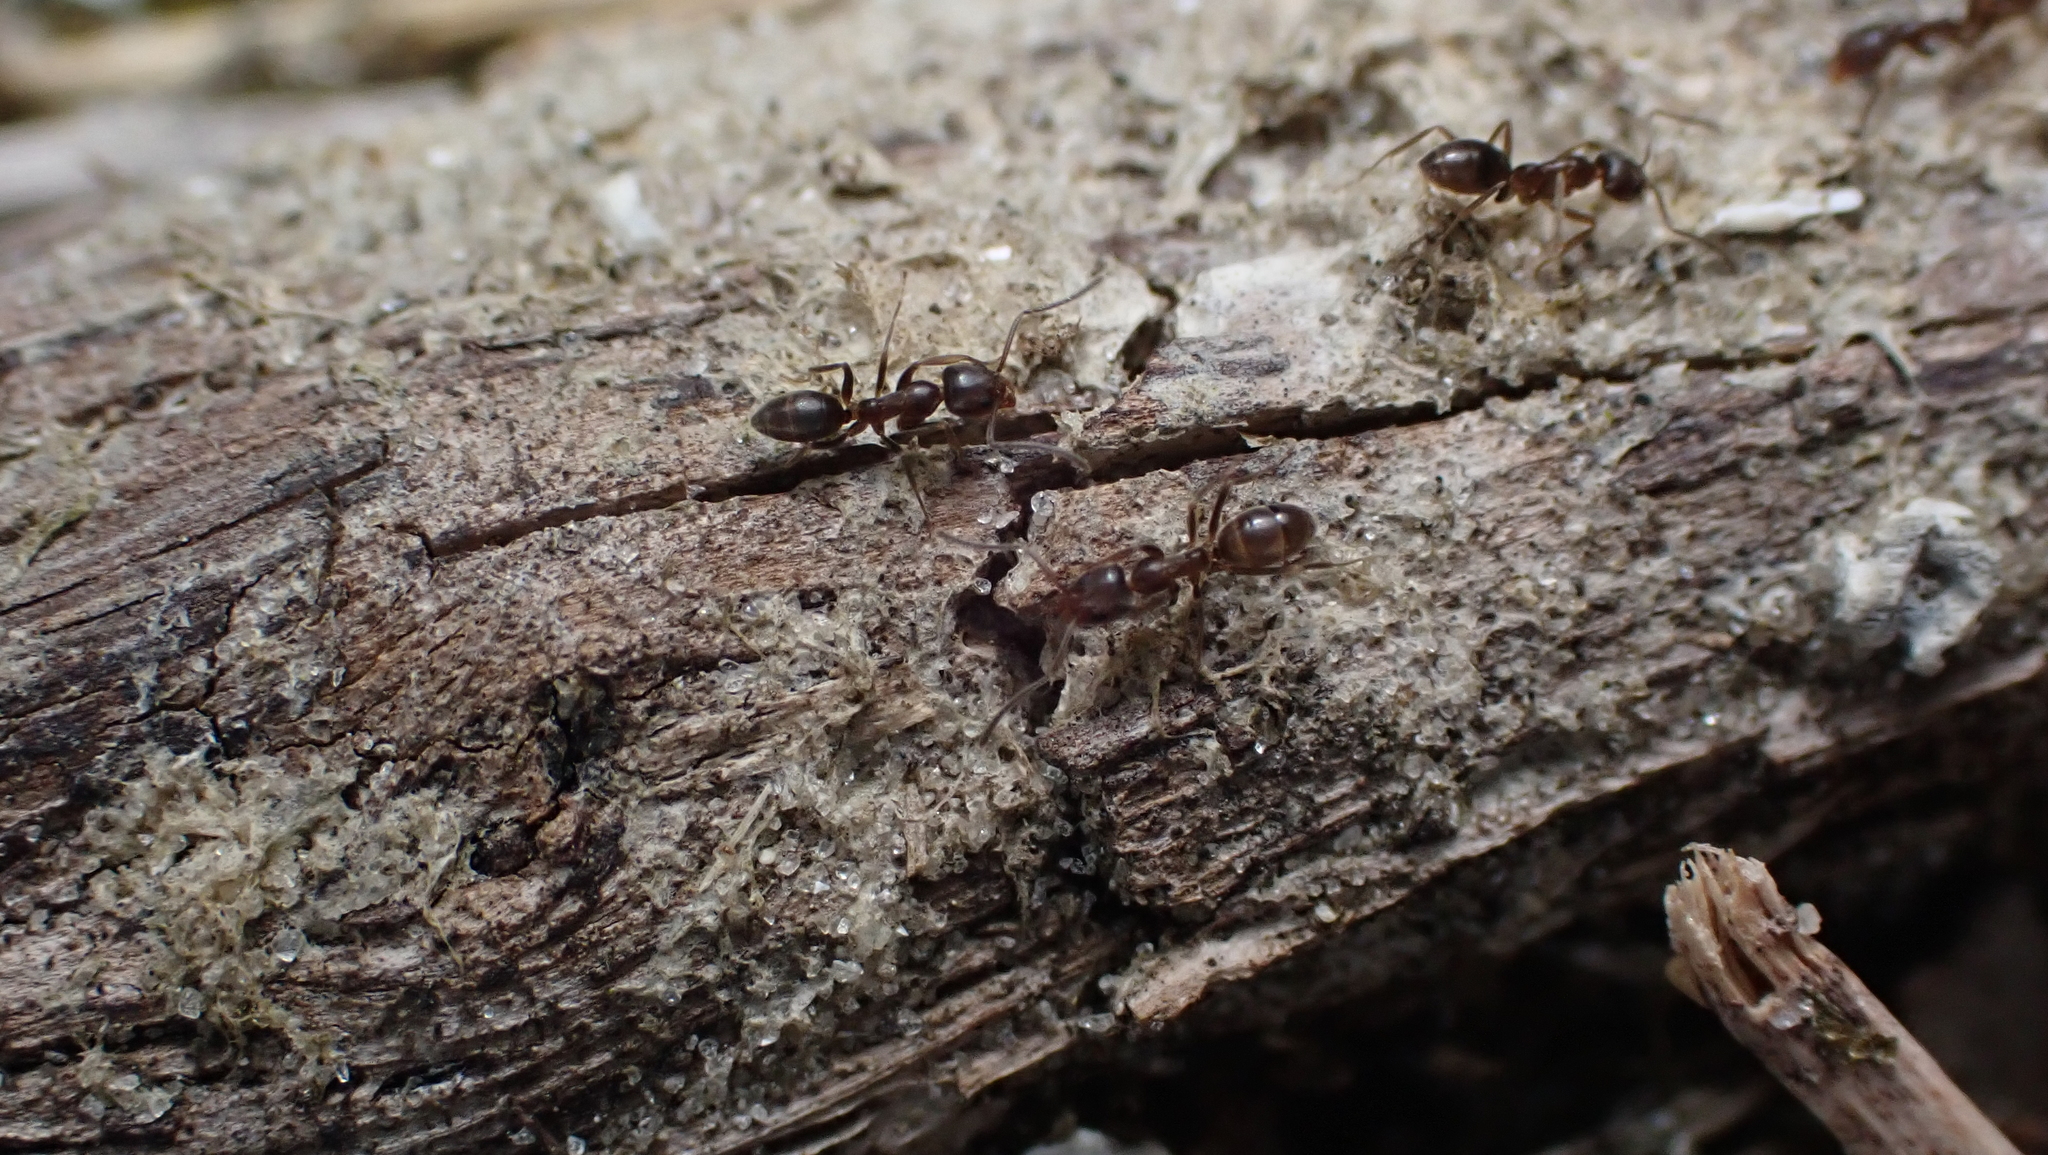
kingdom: Animalia
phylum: Arthropoda
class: Insecta
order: Hymenoptera
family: Formicidae
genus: Linepithema
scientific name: Linepithema humile
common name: Argentine ant
